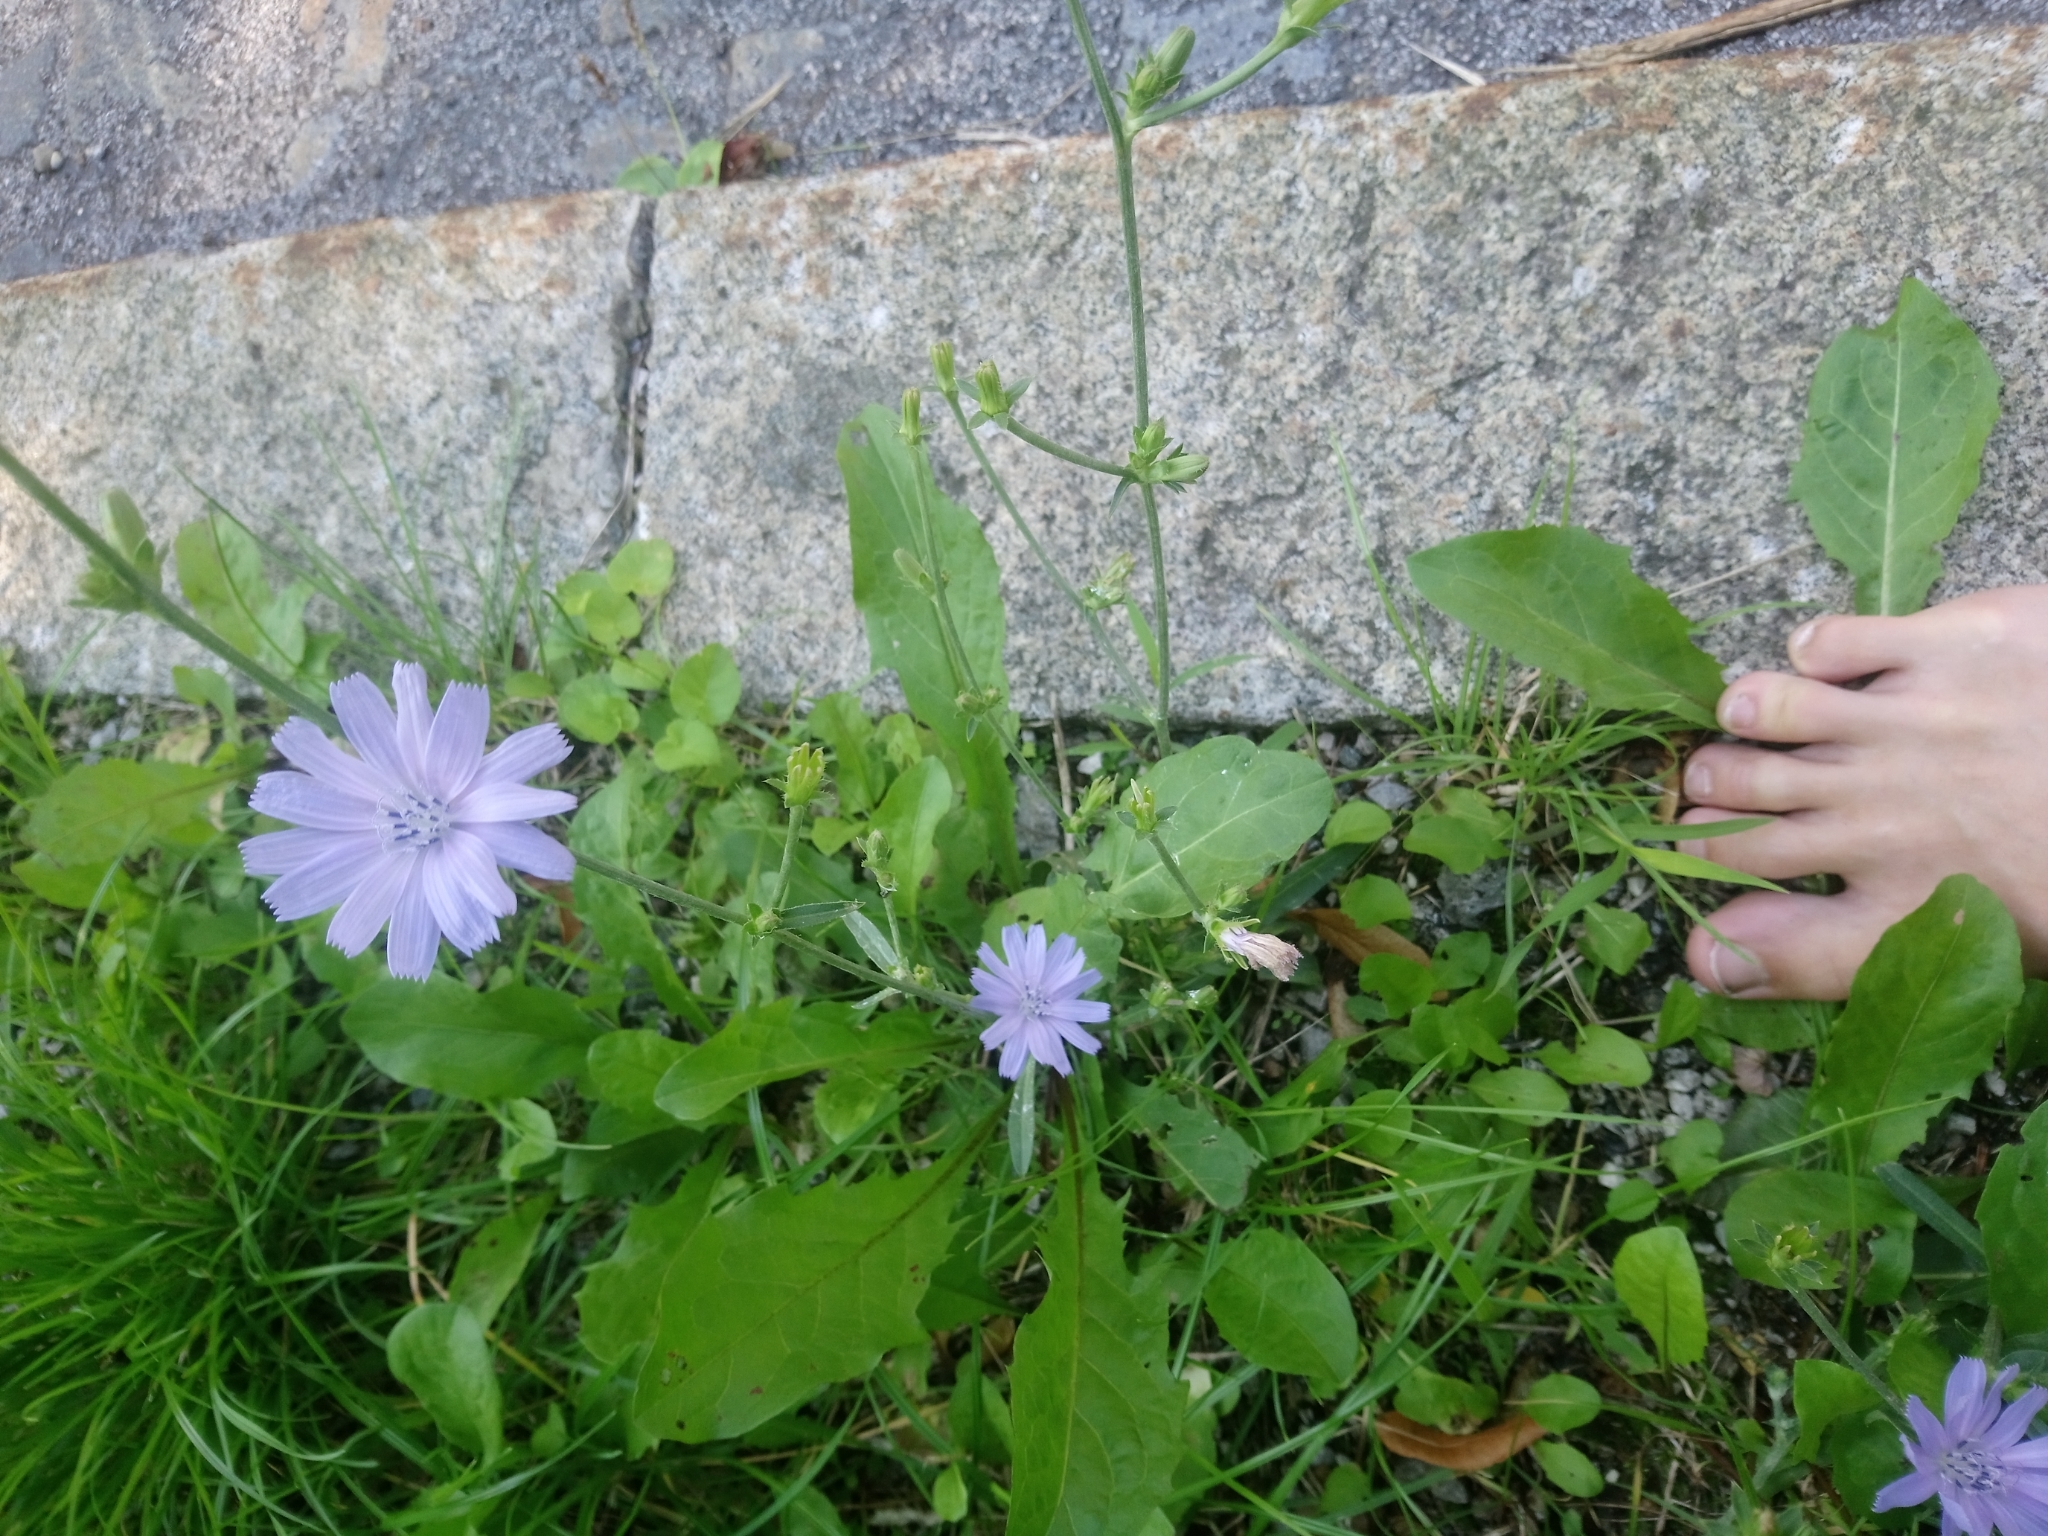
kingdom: Plantae
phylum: Tracheophyta
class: Magnoliopsida
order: Asterales
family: Asteraceae
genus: Cichorium
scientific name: Cichorium intybus
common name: Chicory
